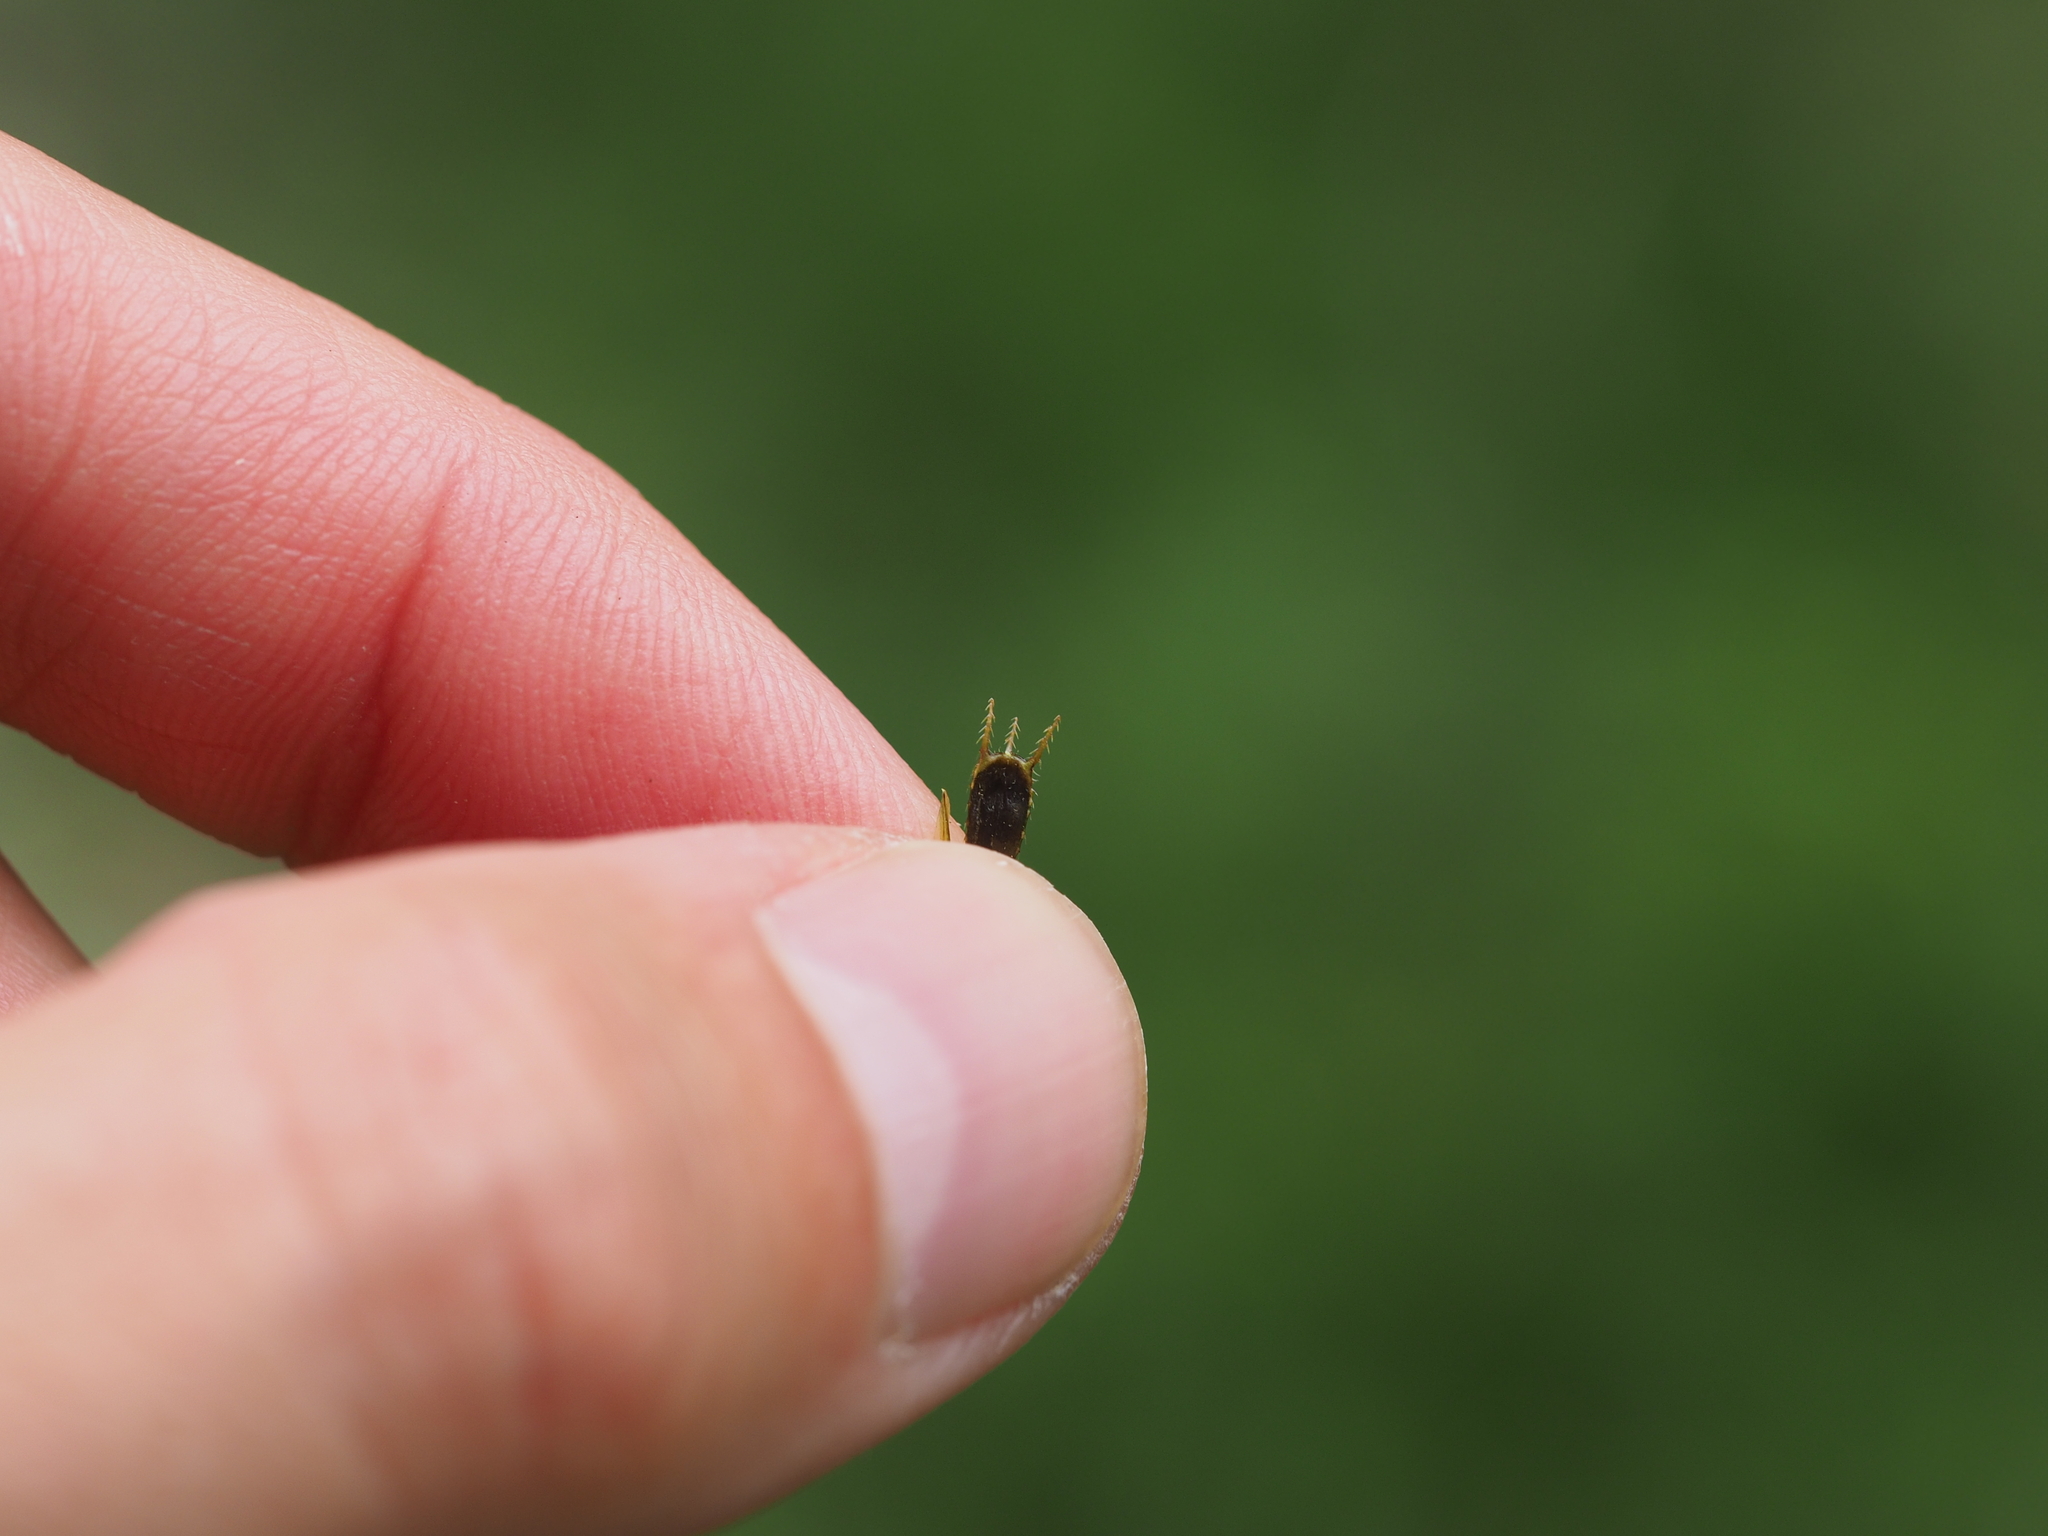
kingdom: Plantae
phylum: Tracheophyta
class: Magnoliopsida
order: Asterales
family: Asteraceae
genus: Bidens
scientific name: Bidens tripartita
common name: Trifid bur-marigold
